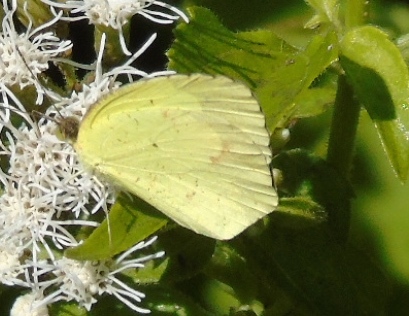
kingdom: Animalia
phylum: Arthropoda
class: Insecta
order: Lepidoptera
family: Pieridae
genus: Abaeis
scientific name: Abaeis mexicana
